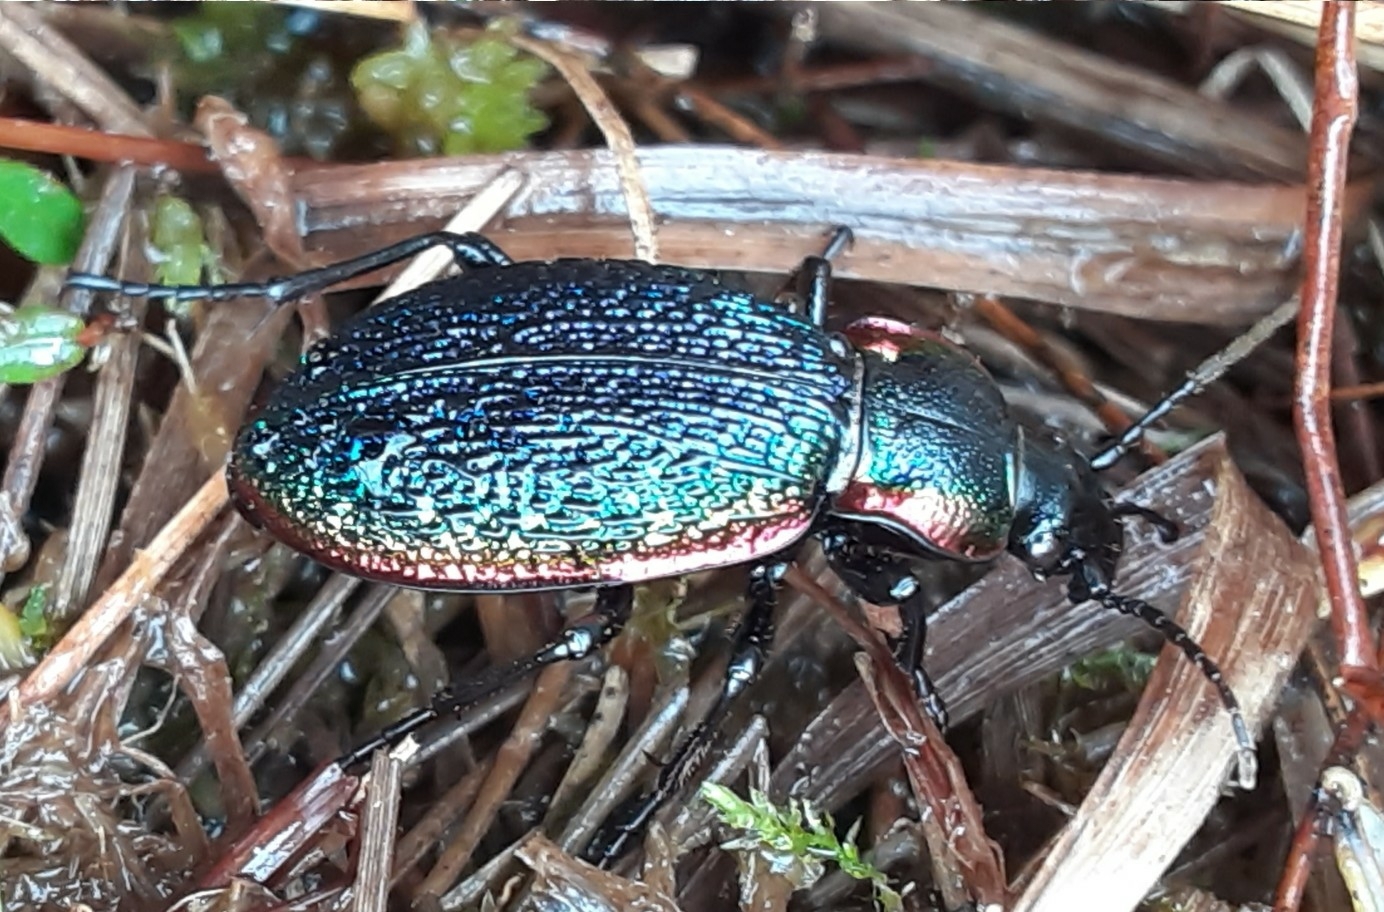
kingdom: Animalia
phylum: Arthropoda
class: Insecta
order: Coleoptera
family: Carabidae
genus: Carabus
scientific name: Carabus vietinghoffii
